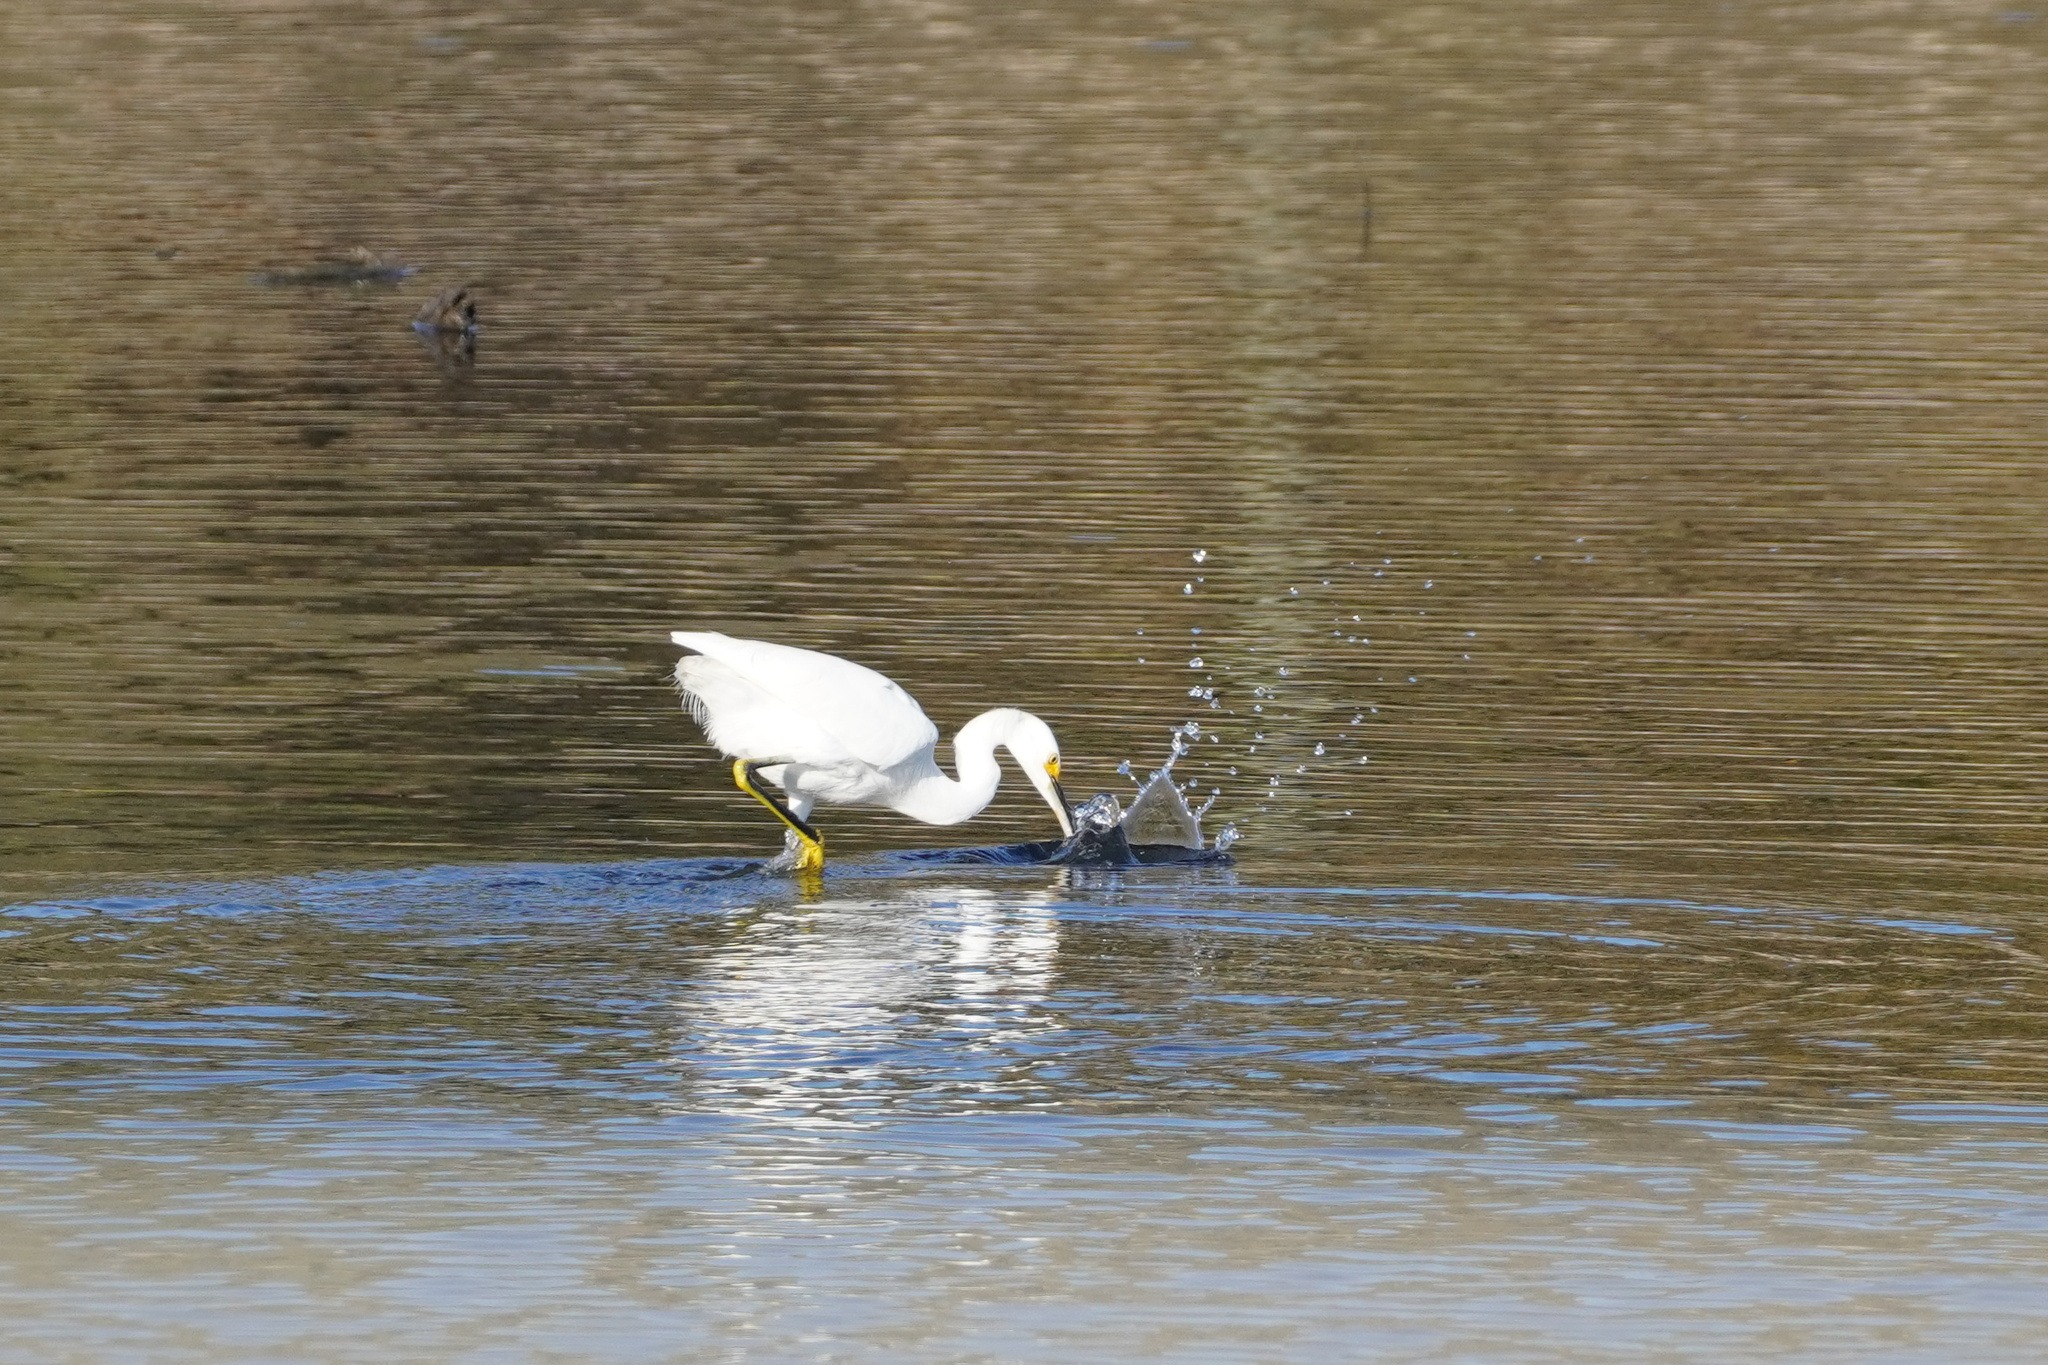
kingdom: Animalia
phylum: Chordata
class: Aves
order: Pelecaniformes
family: Ardeidae
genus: Egretta
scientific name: Egretta thula
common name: Snowy egret
